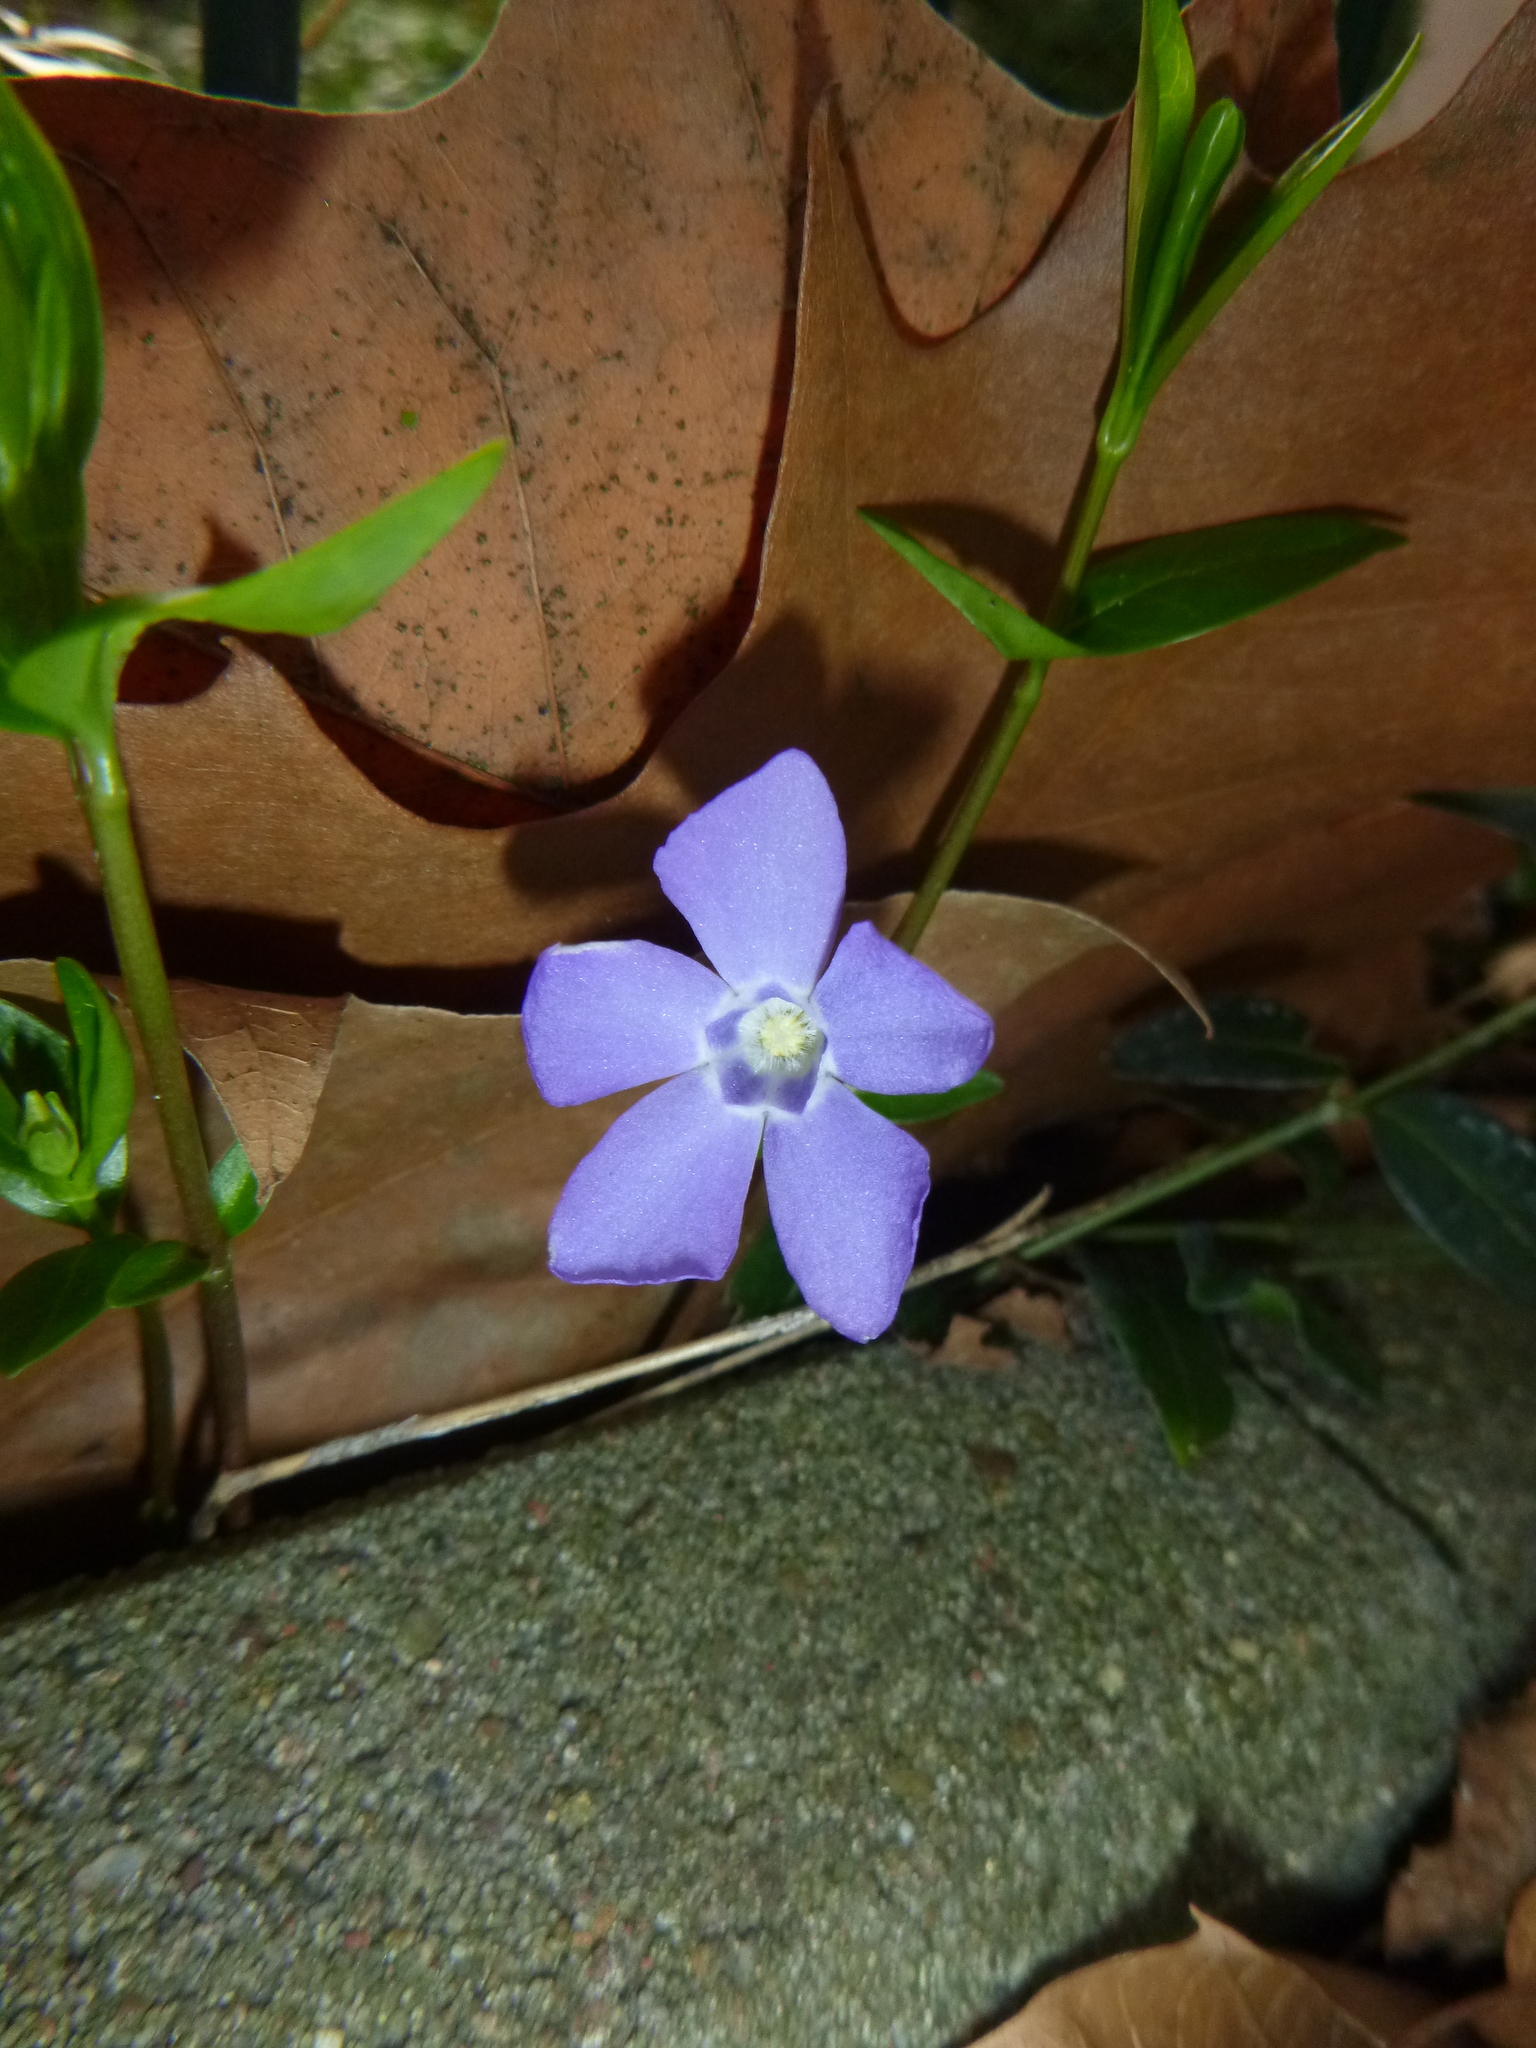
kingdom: Plantae
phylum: Tracheophyta
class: Magnoliopsida
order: Gentianales
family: Apocynaceae
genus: Vinca
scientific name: Vinca minor
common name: Lesser periwinkle
